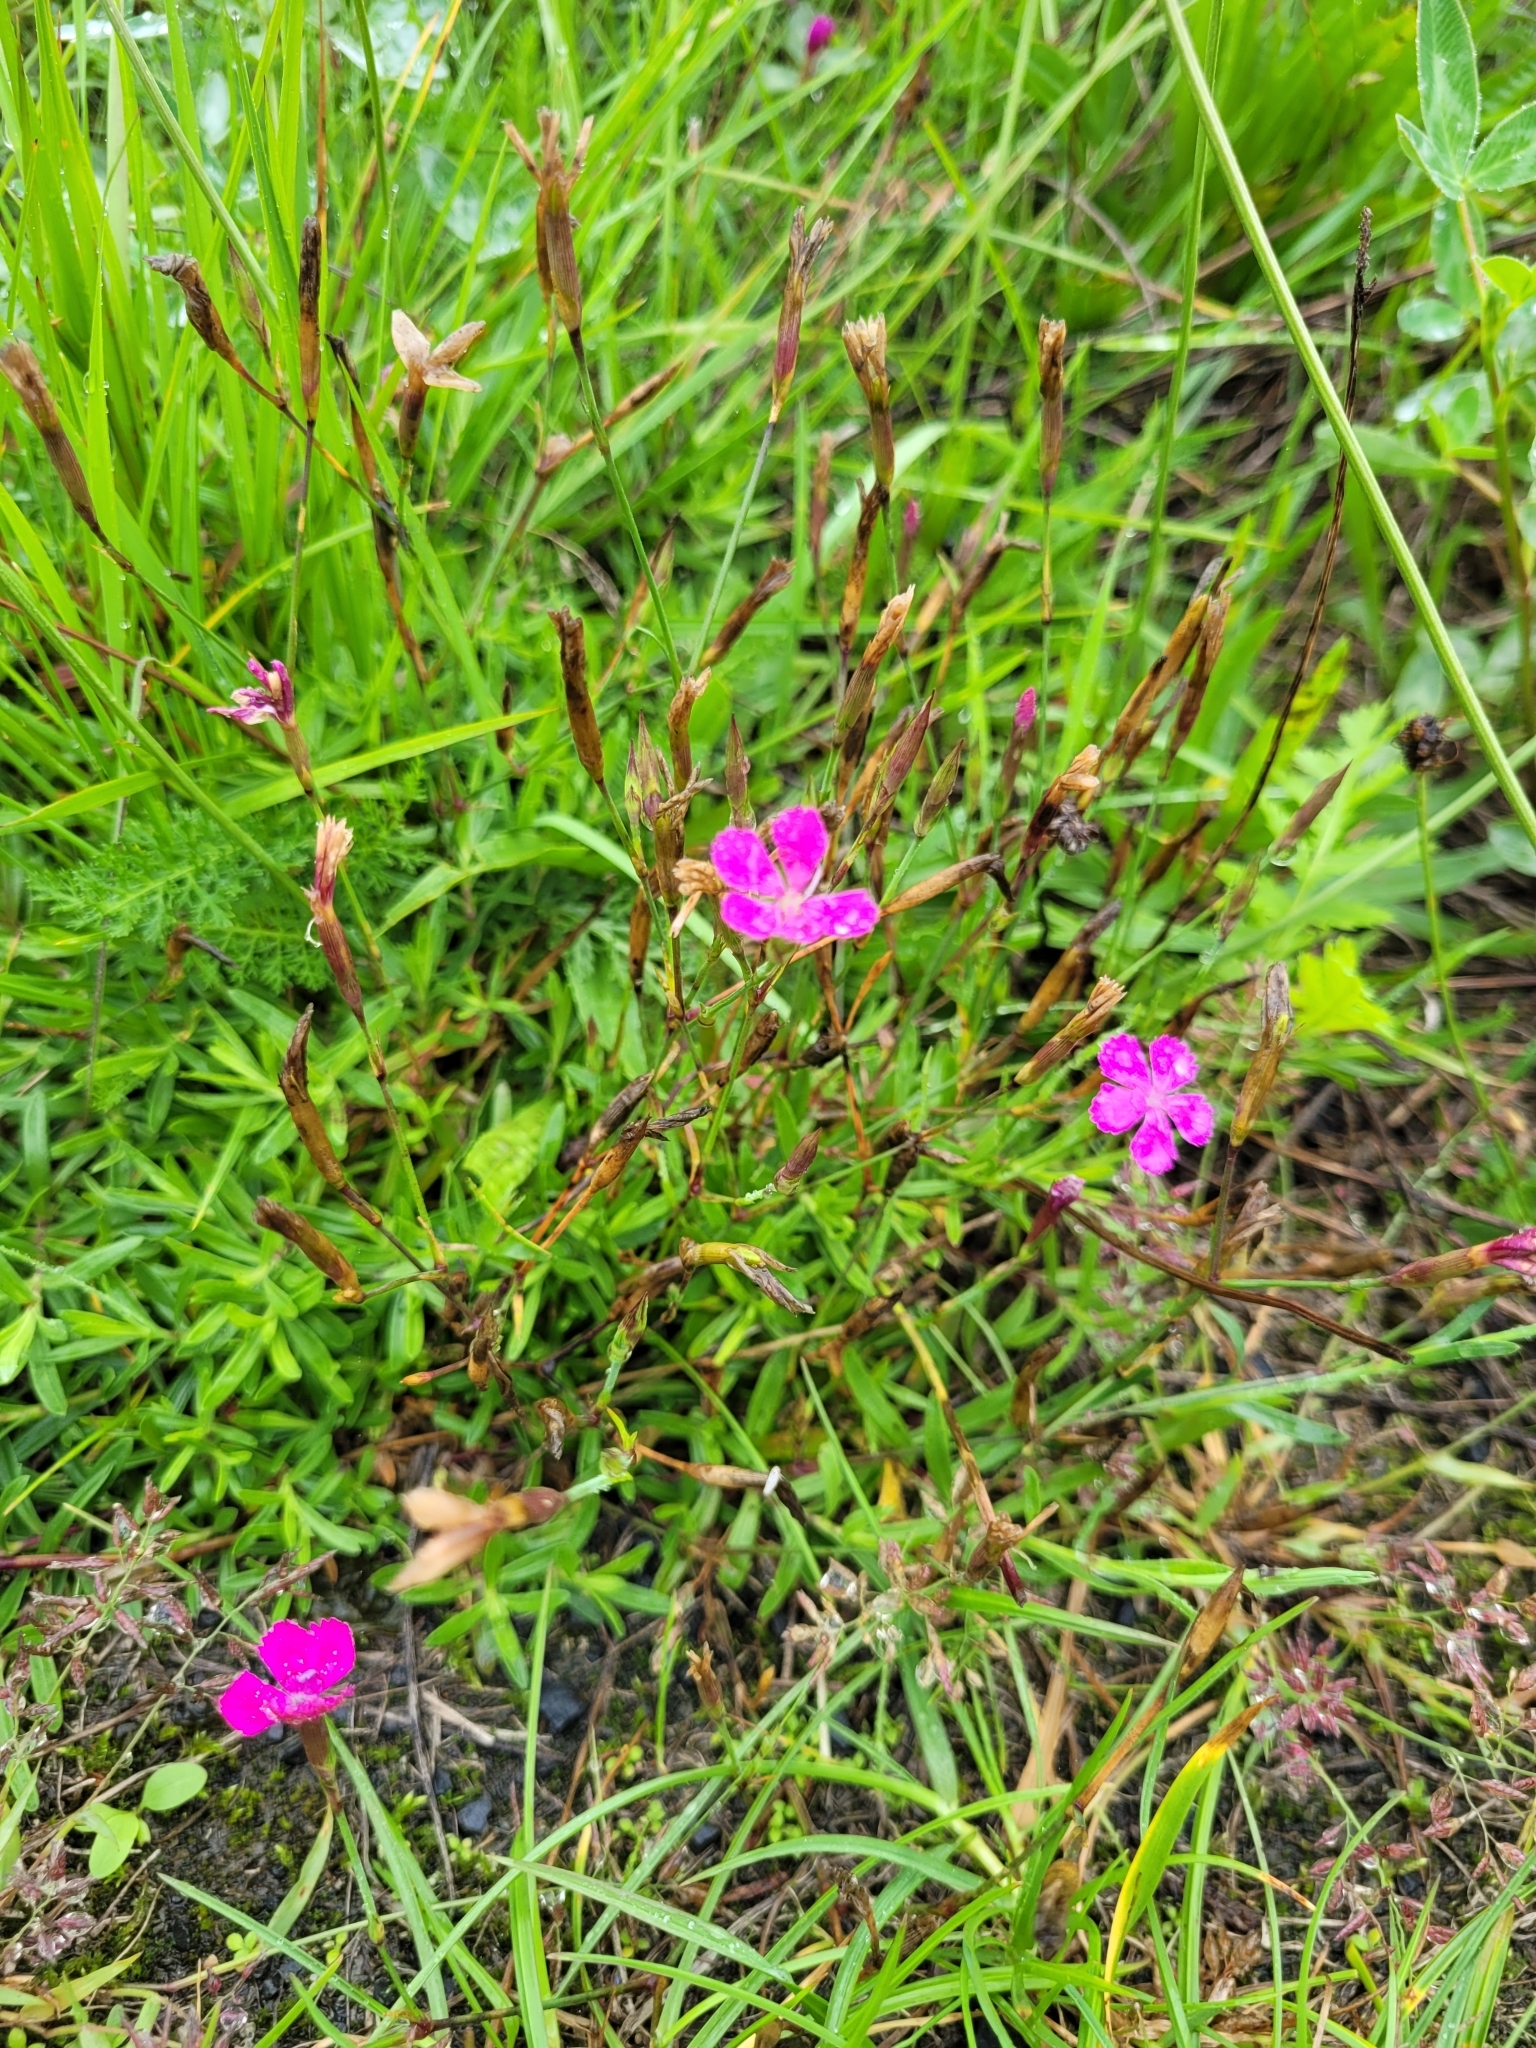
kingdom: Plantae
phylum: Tracheophyta
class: Magnoliopsida
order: Caryophyllales
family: Caryophyllaceae
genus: Dianthus
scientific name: Dianthus deltoides
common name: Maiden pink
